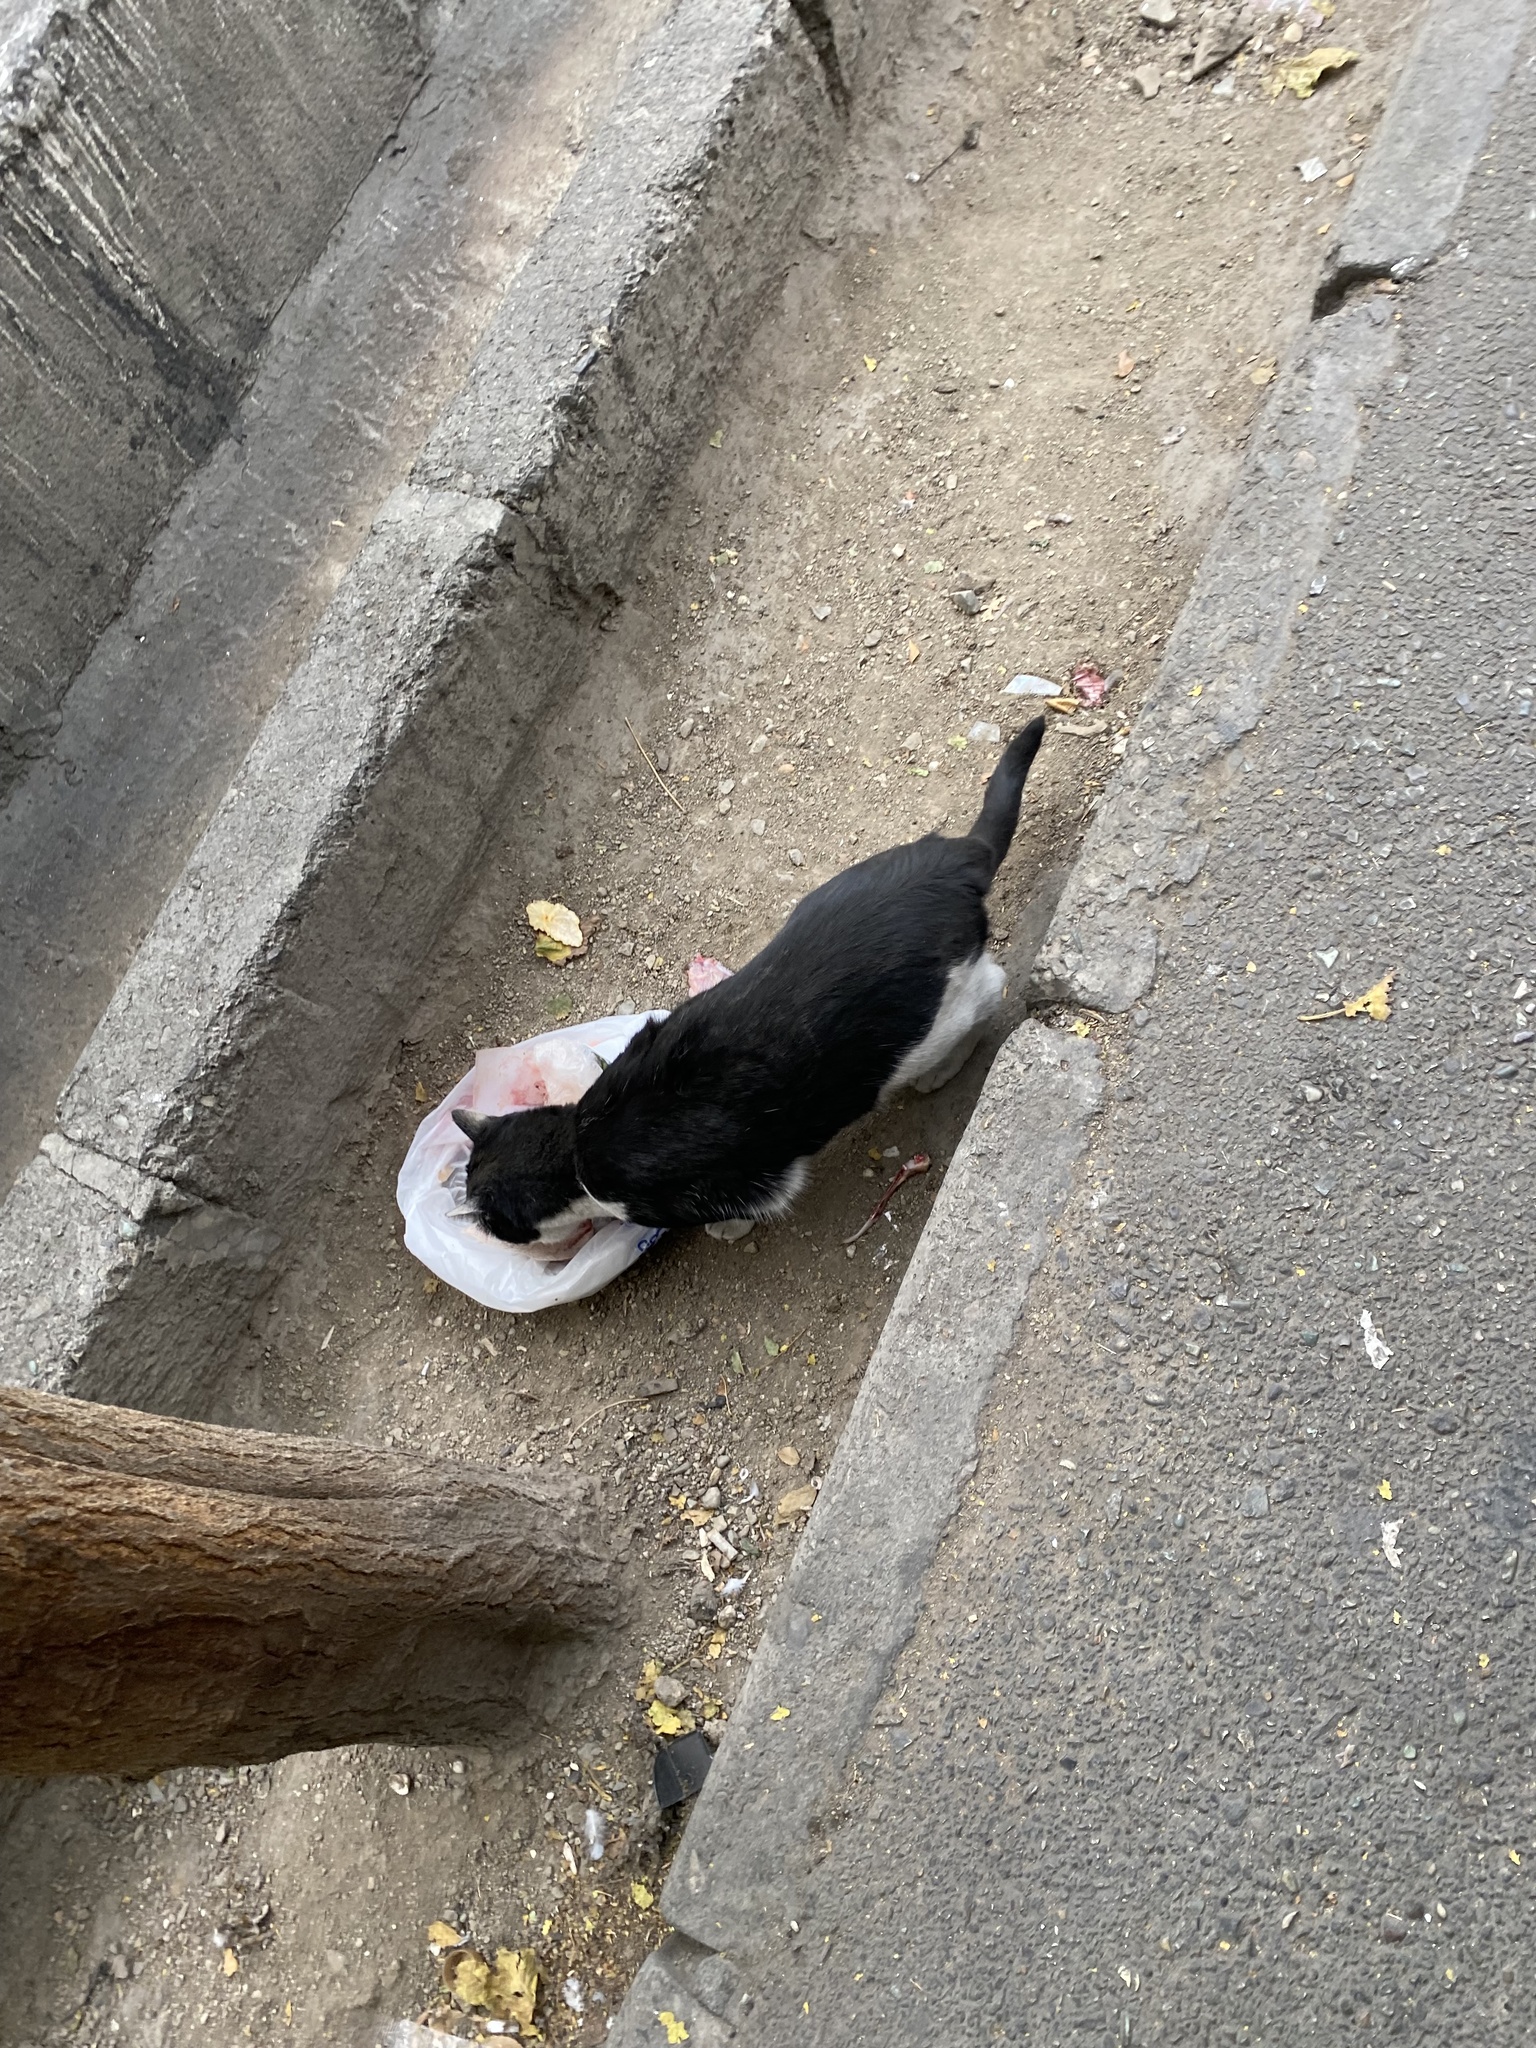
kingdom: Animalia
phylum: Chordata
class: Mammalia
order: Carnivora
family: Felidae
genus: Felis
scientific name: Felis catus
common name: Domestic cat
